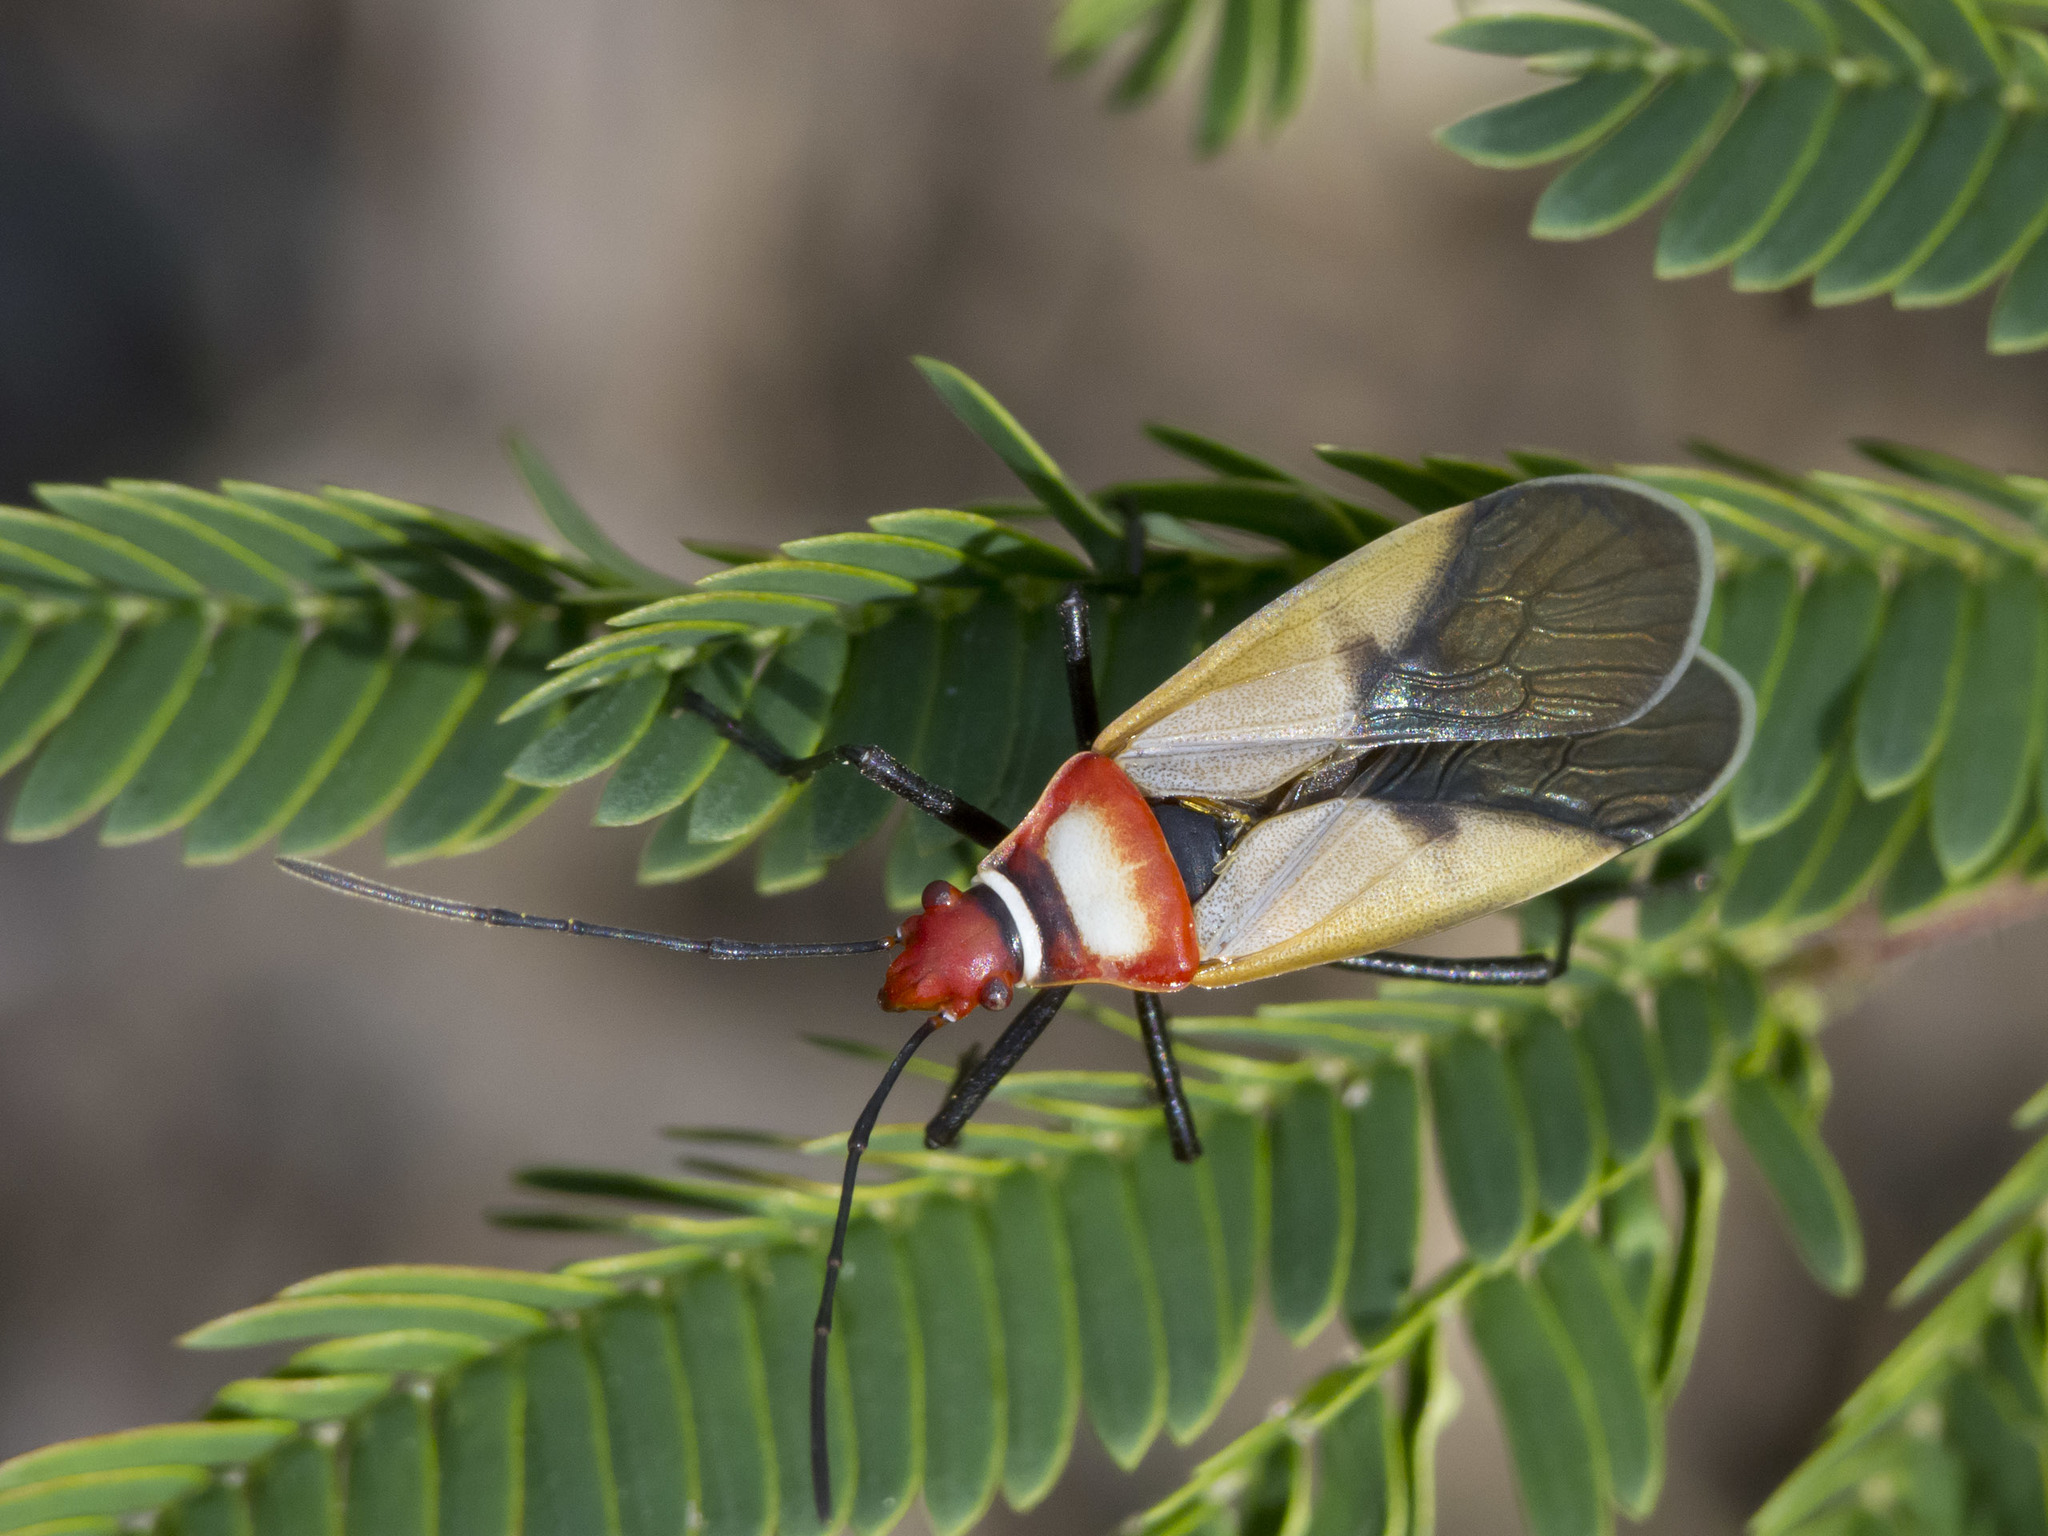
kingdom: Animalia
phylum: Arthropoda
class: Insecta
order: Hemiptera
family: Pyrrhocoridae
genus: Dysdercus
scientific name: Dysdercus collaris
